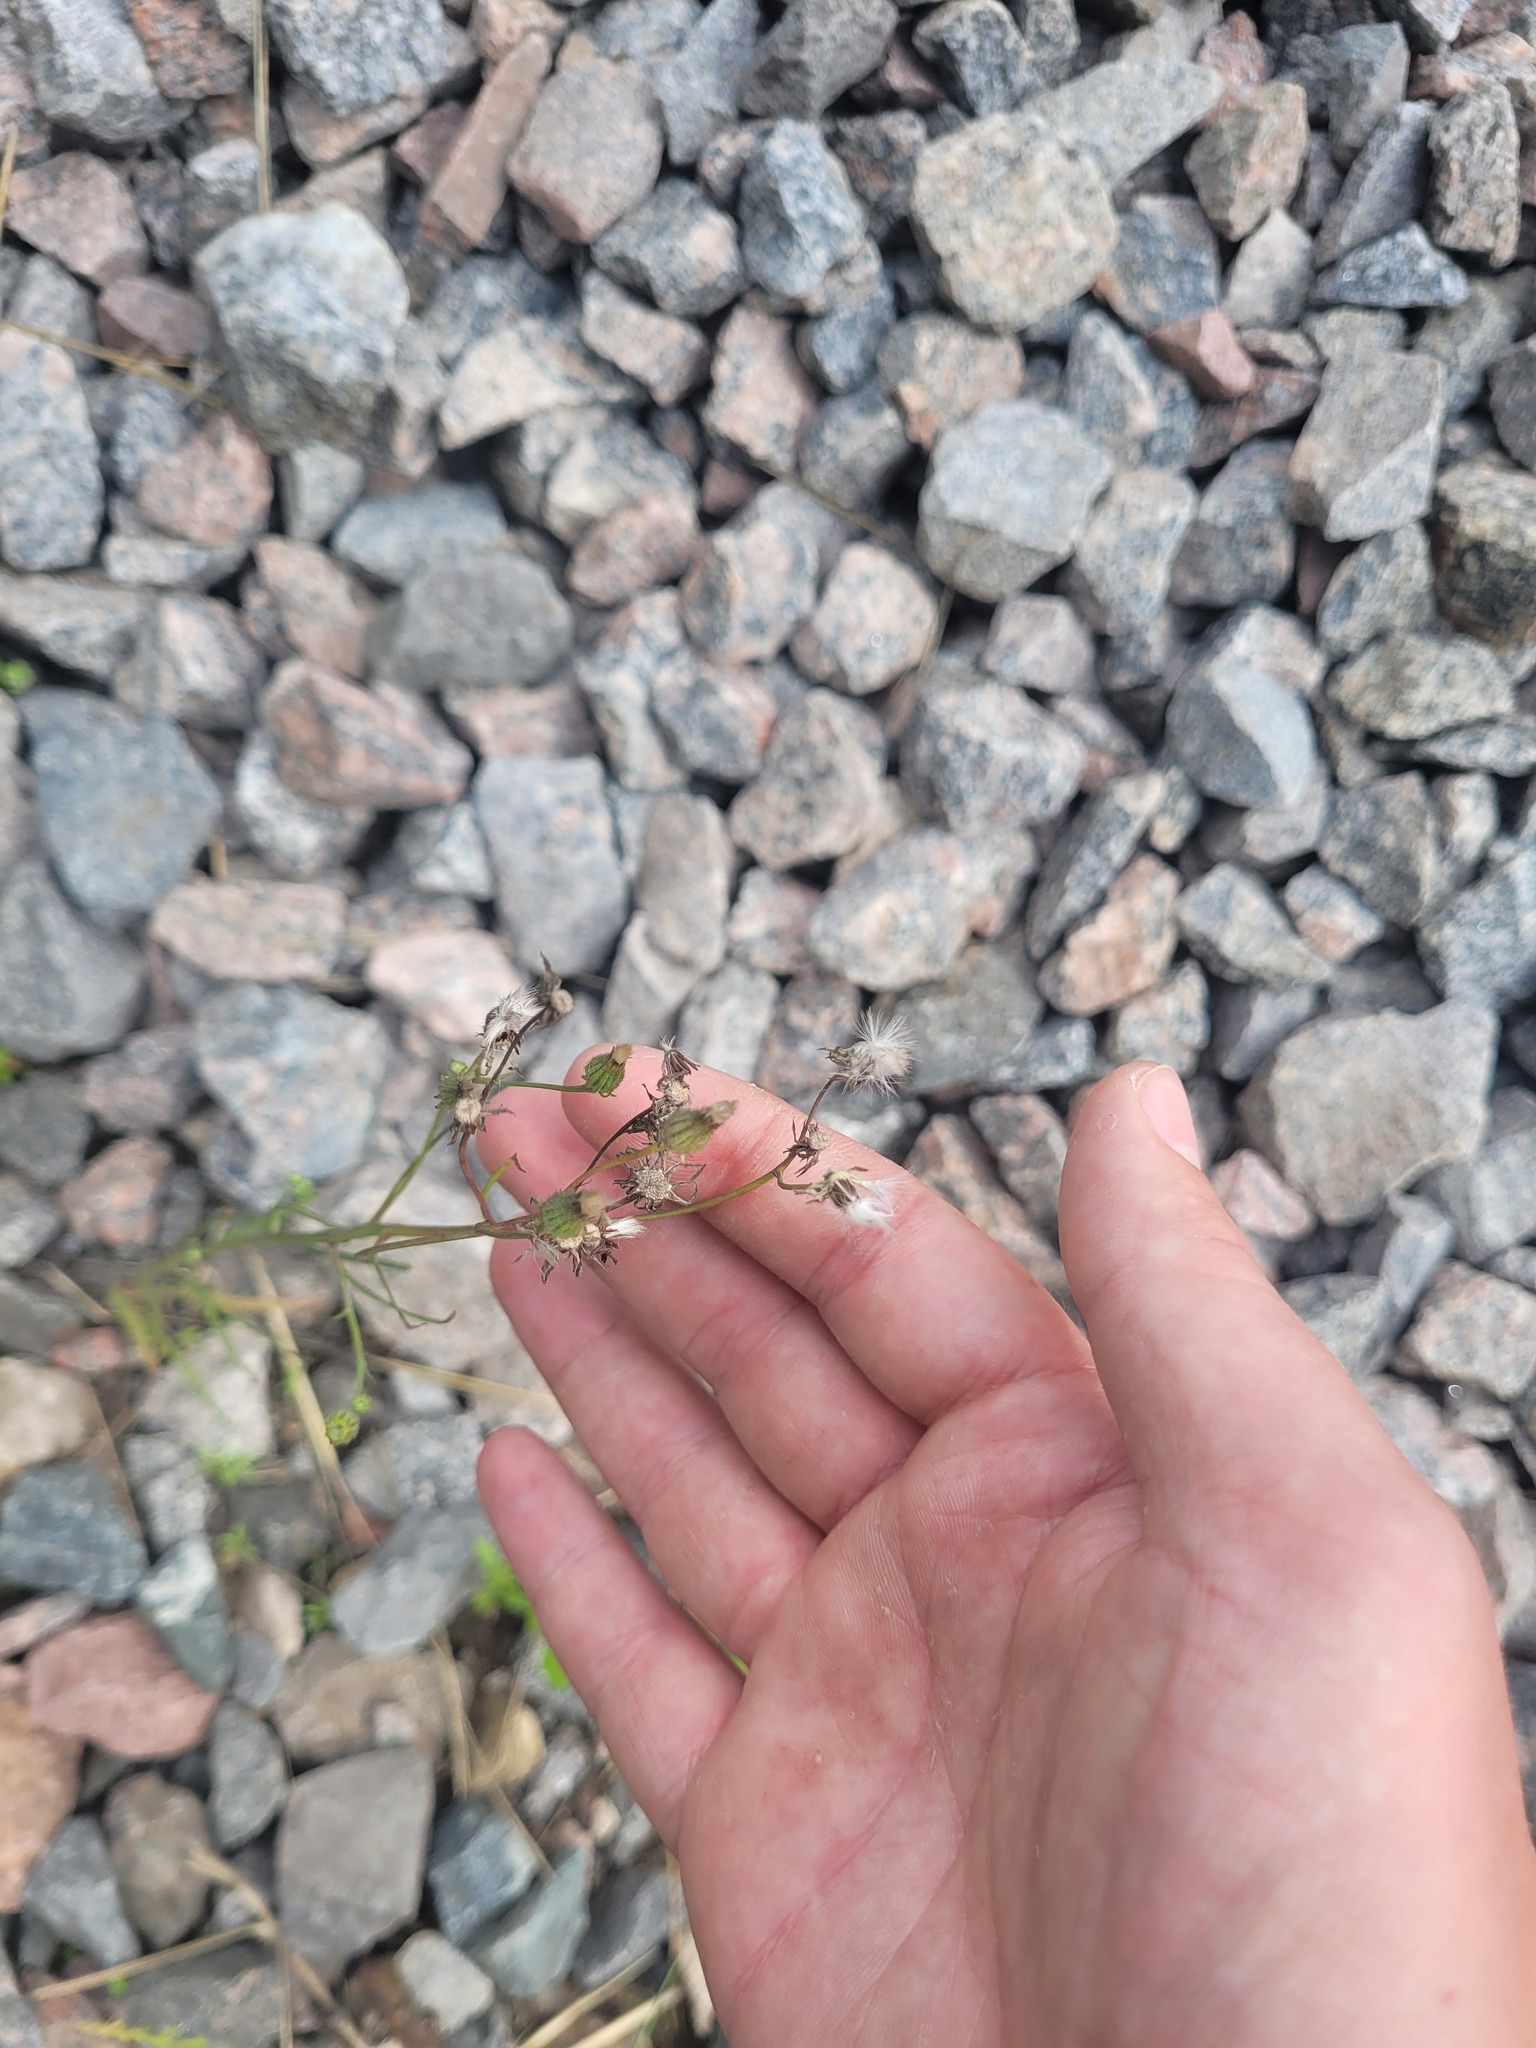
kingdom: Plantae
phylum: Tracheophyta
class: Magnoliopsida
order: Asterales
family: Asteraceae
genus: Crepis
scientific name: Crepis tectorum
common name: Narrow-leaved hawk's-beard
